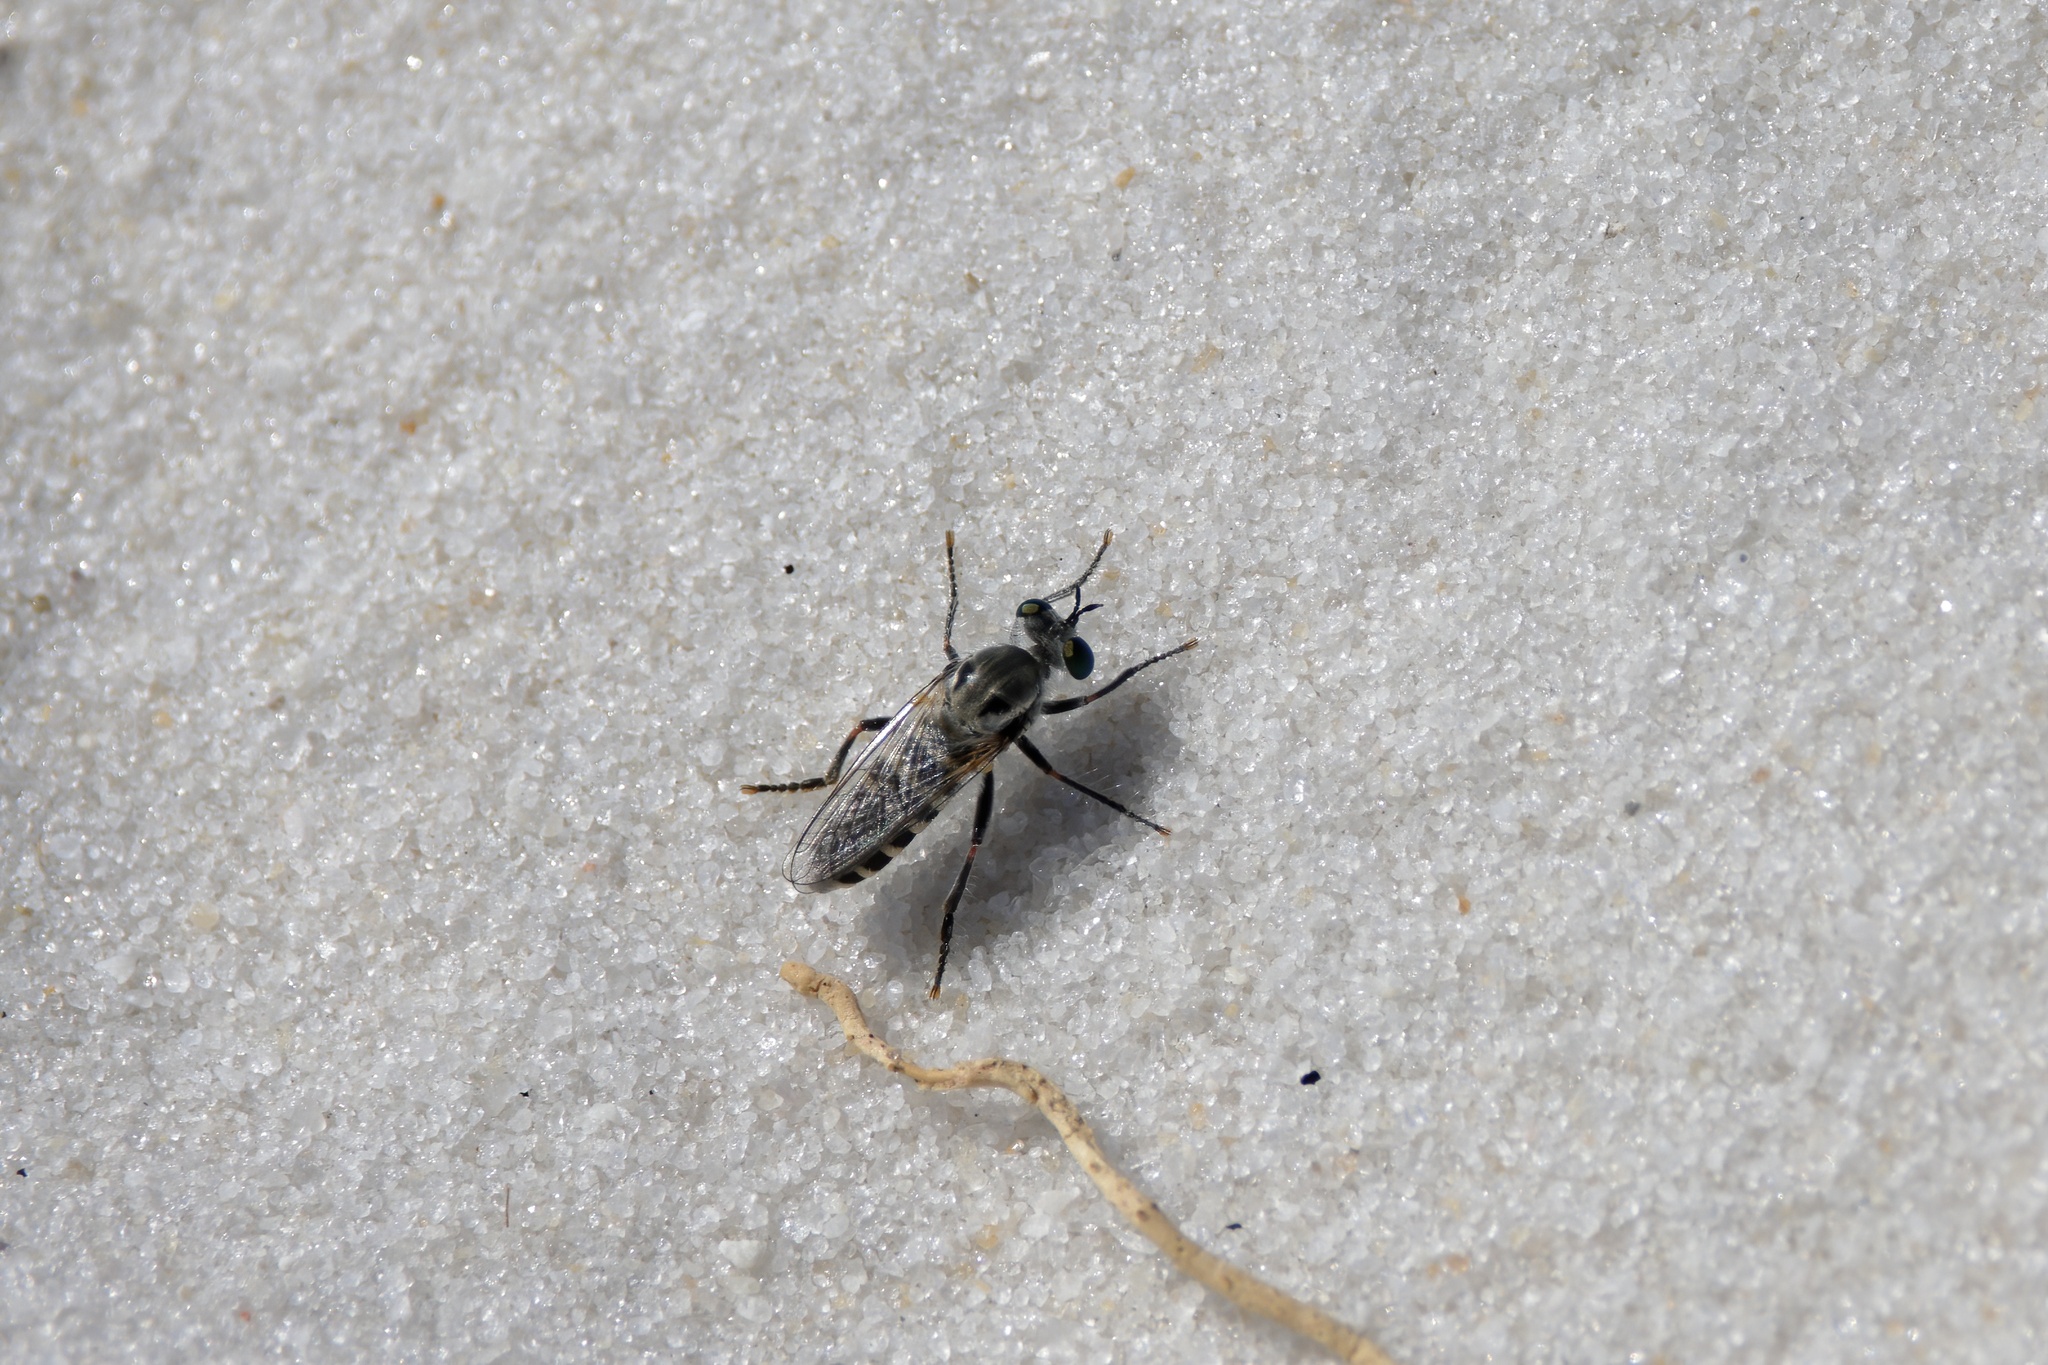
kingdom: Animalia
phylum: Arthropoda
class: Insecta
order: Diptera
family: Asilidae
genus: Laphystia
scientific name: Laphystia texensis
